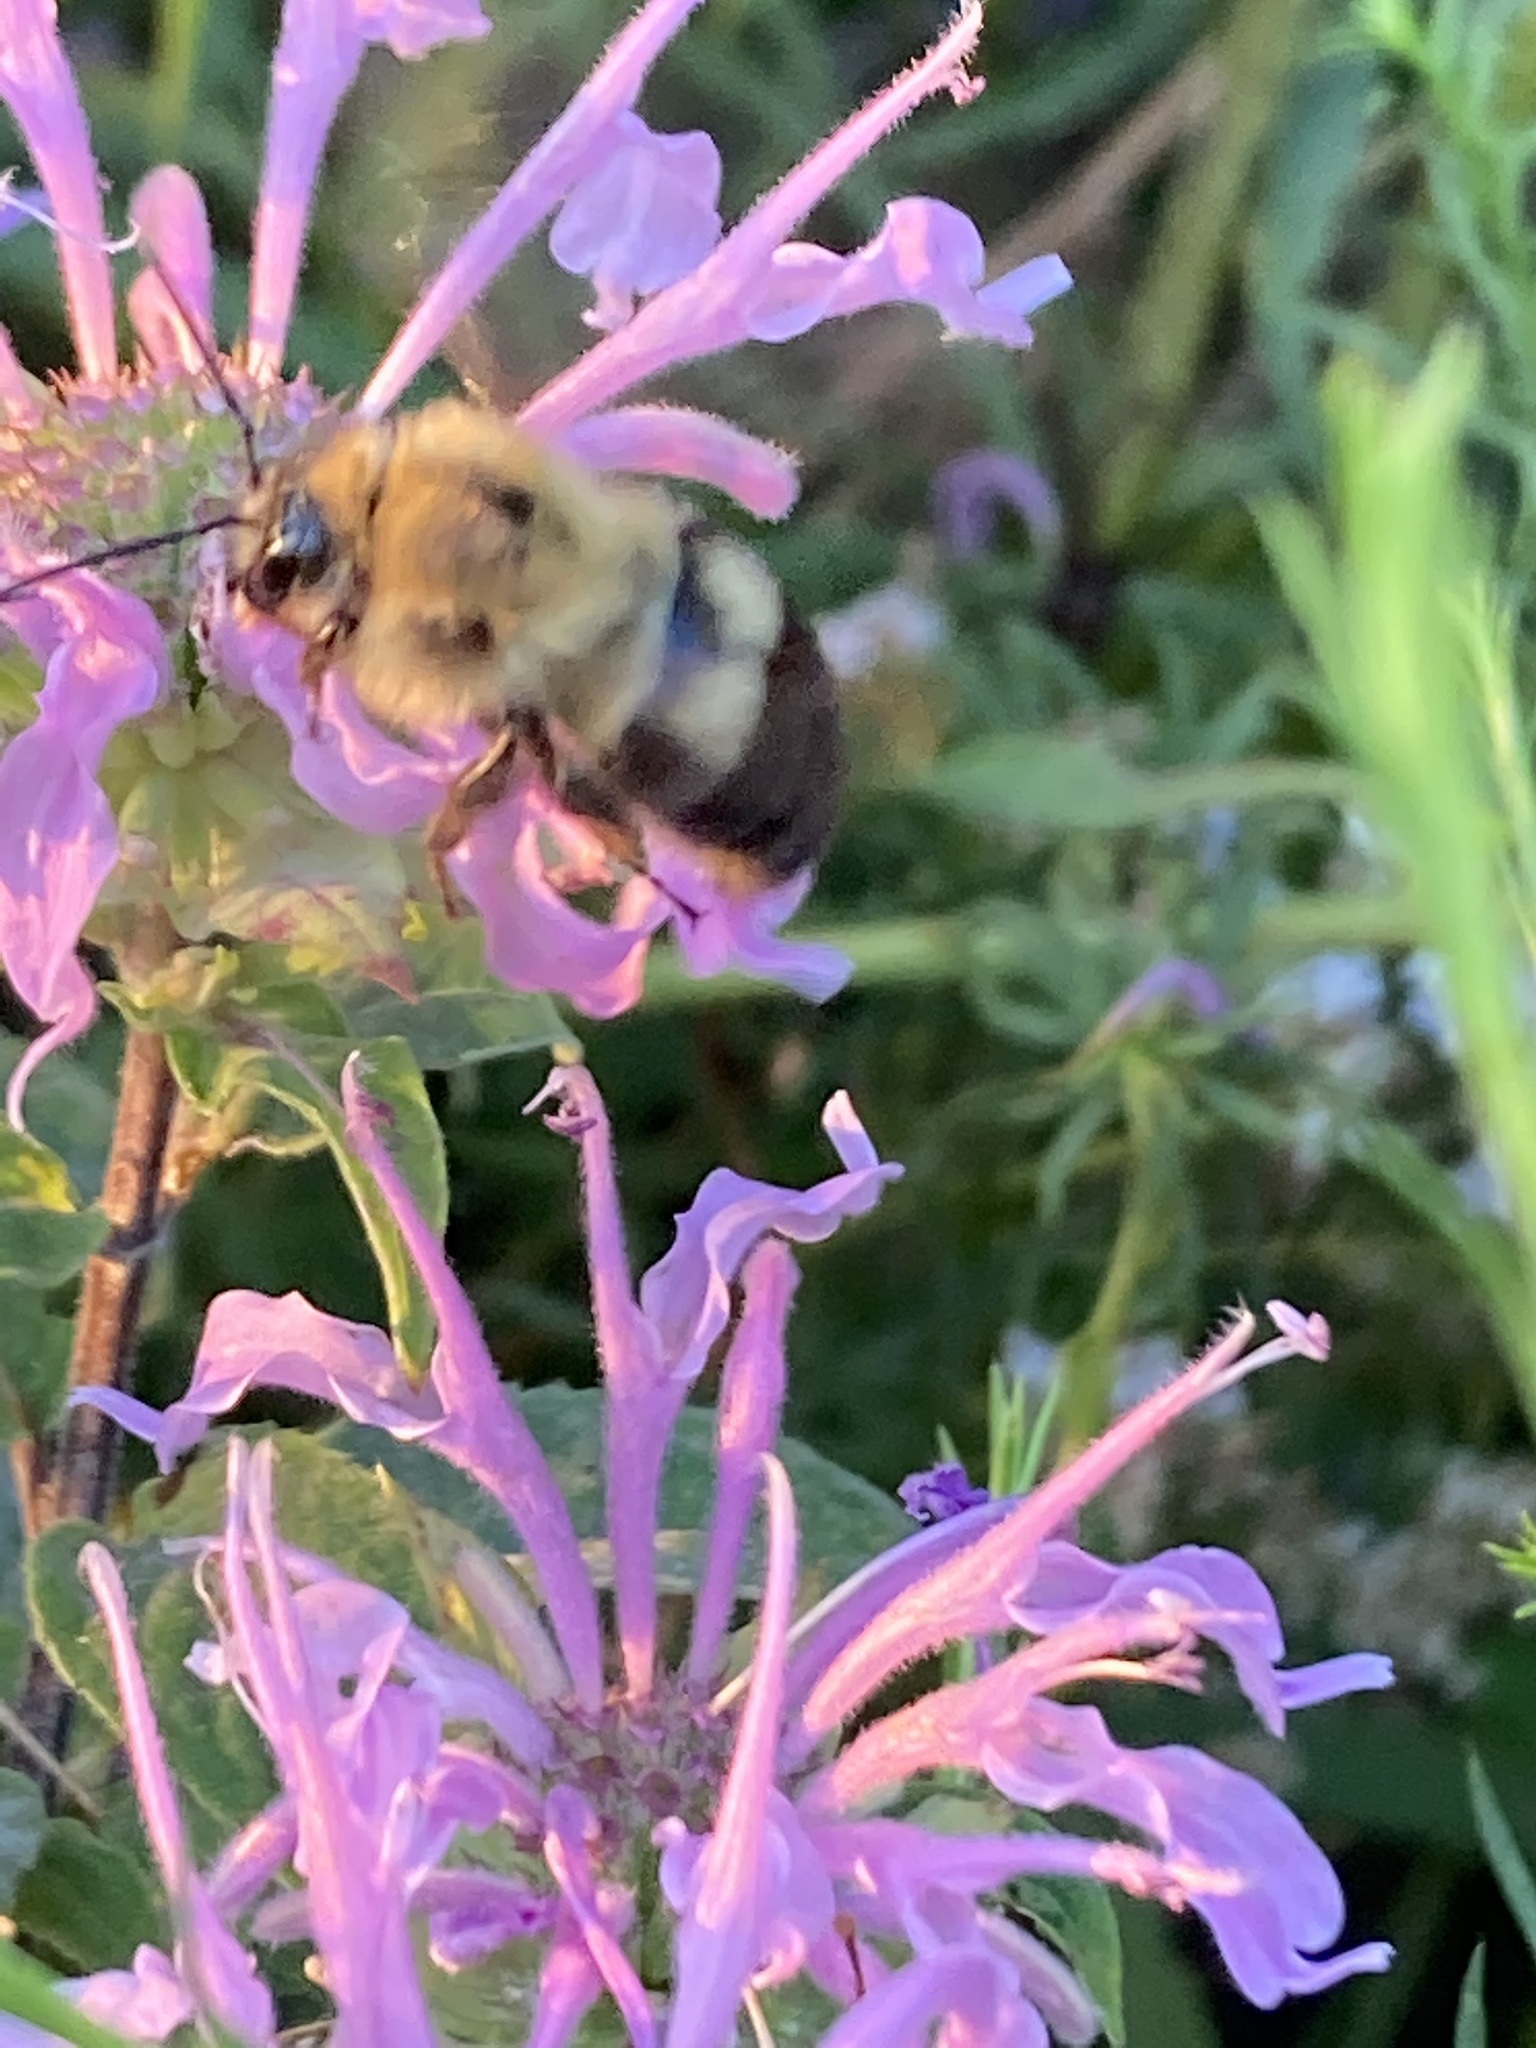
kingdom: Animalia
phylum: Arthropoda
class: Insecta
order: Hymenoptera
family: Apidae
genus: Bombus
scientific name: Bombus bimaculatus
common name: Two-spotted bumble bee
